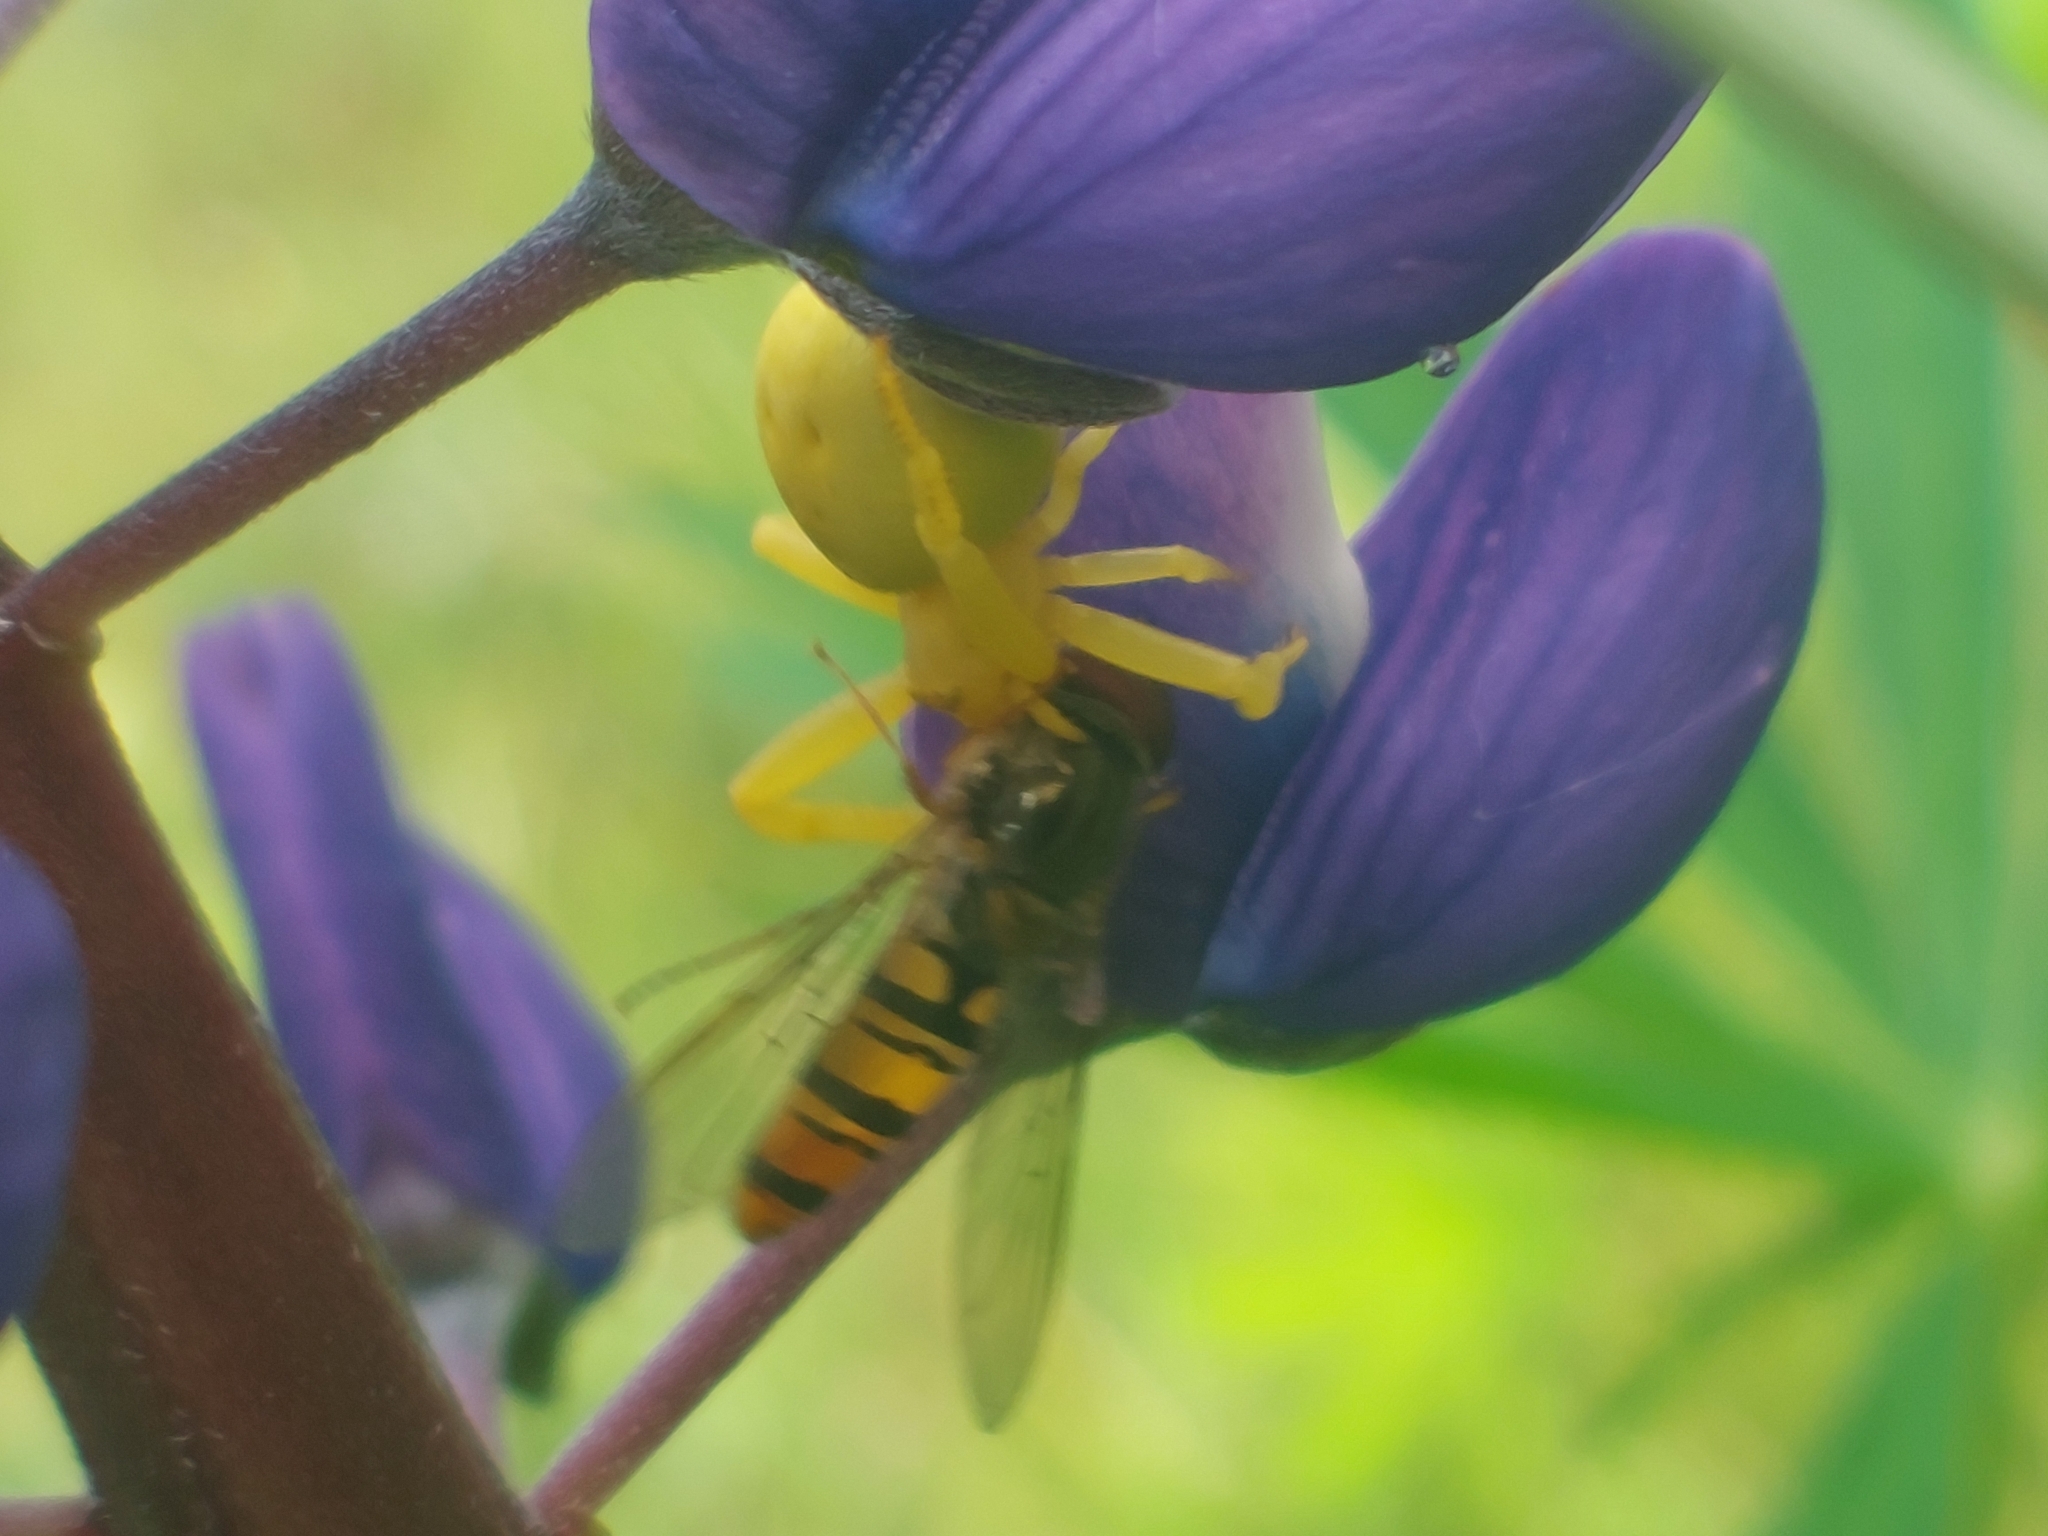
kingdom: Animalia
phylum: Arthropoda
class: Arachnida
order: Araneae
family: Thomisidae
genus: Misumena
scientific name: Misumena vatia
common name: Goldenrod crab spider
